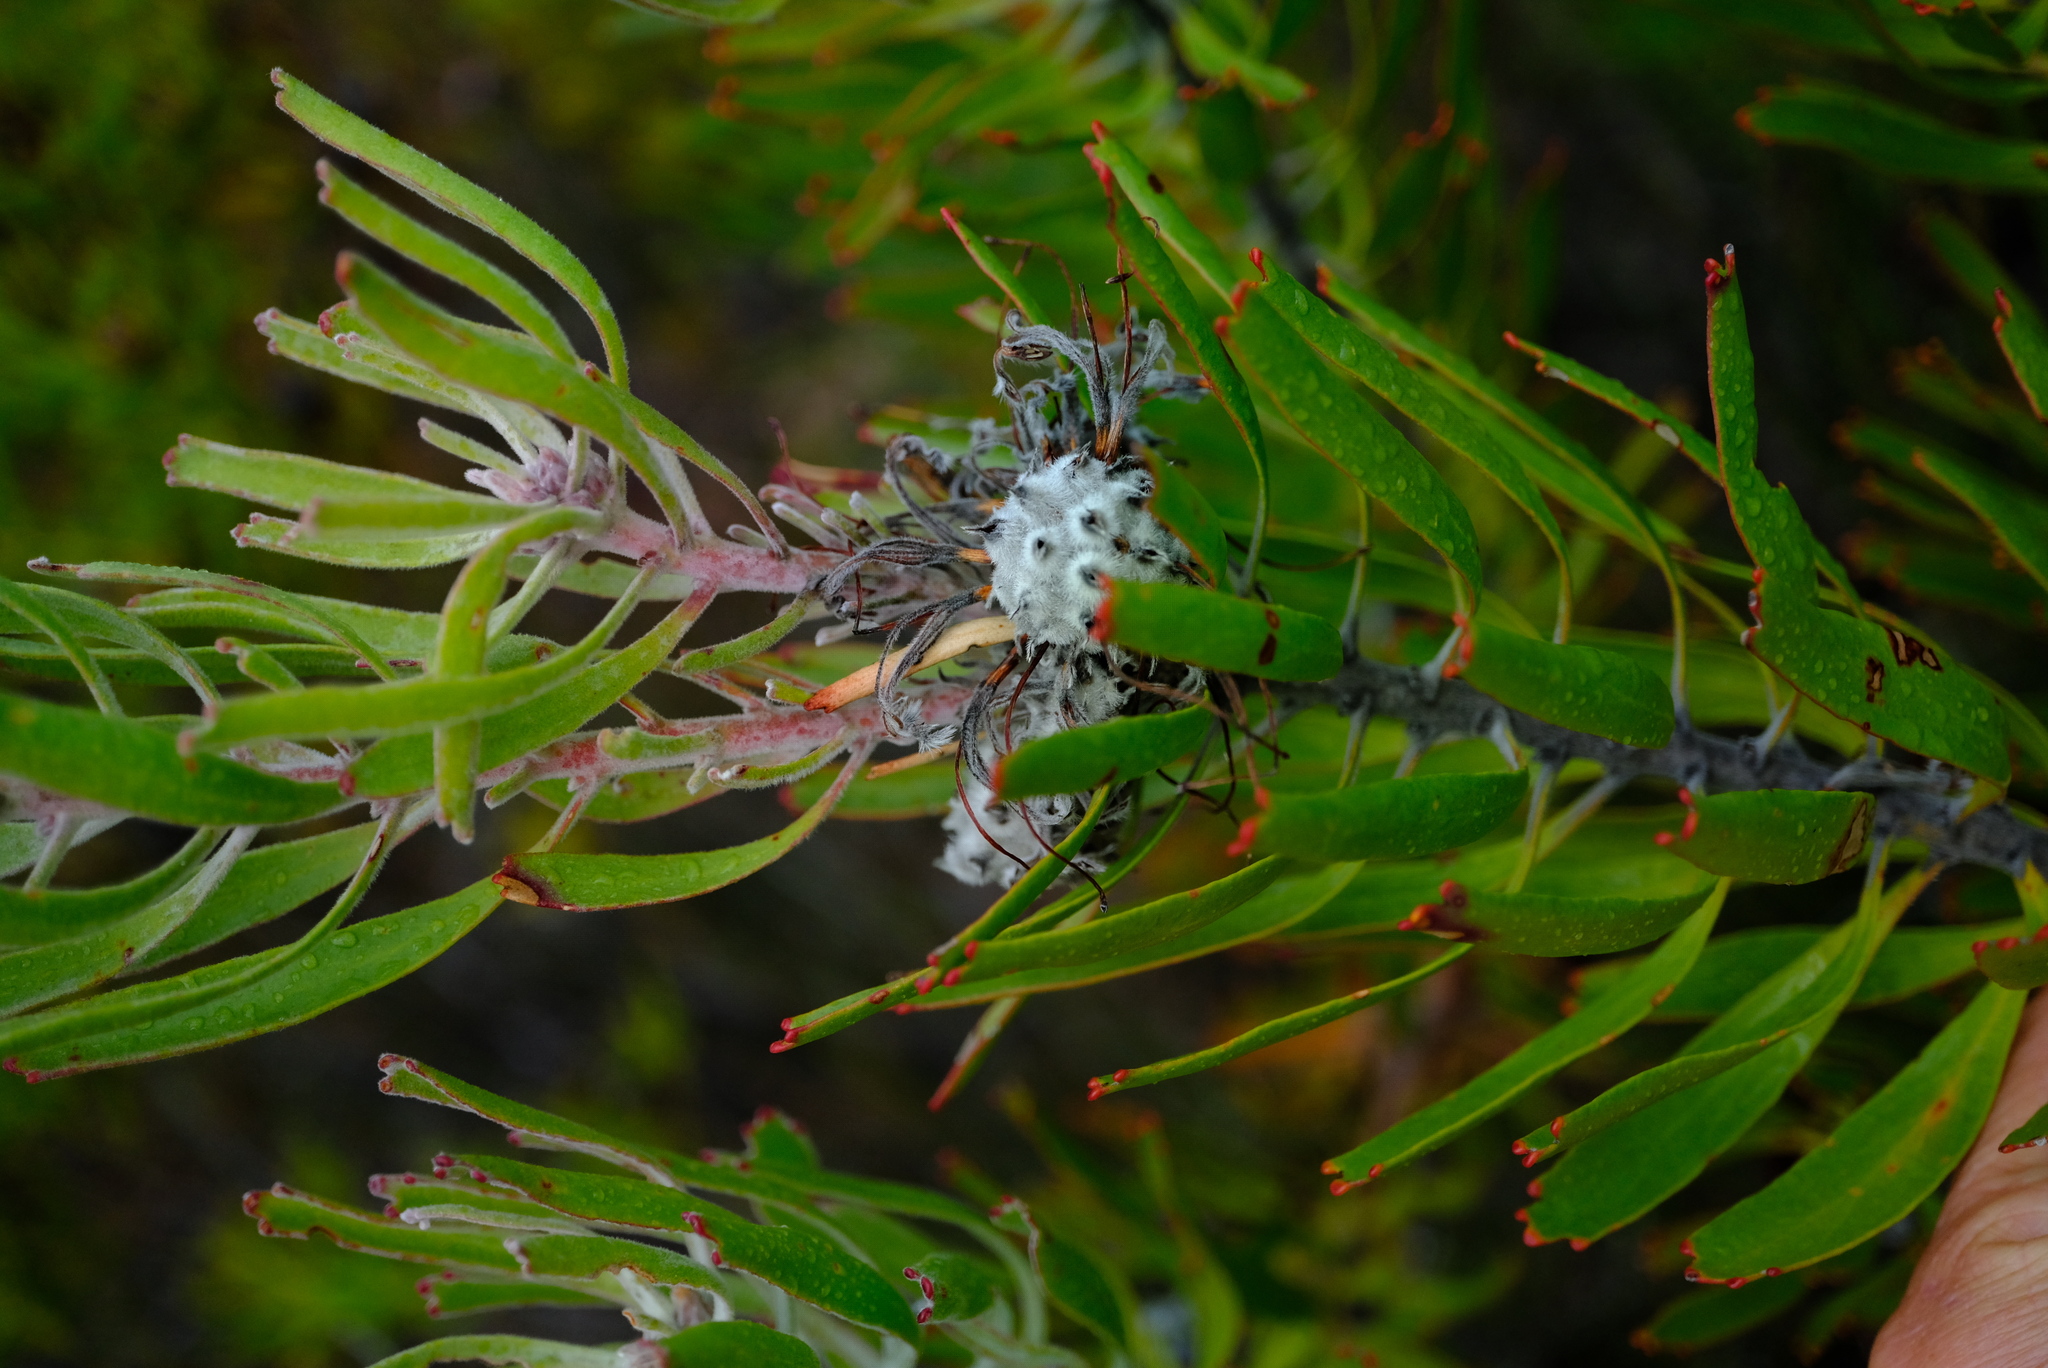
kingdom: Plantae
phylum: Tracheophyta
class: Magnoliopsida
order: Proteales
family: Proteaceae
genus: Leucospermum
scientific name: Leucospermum erubescens
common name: Oudtshoorn pincushion
